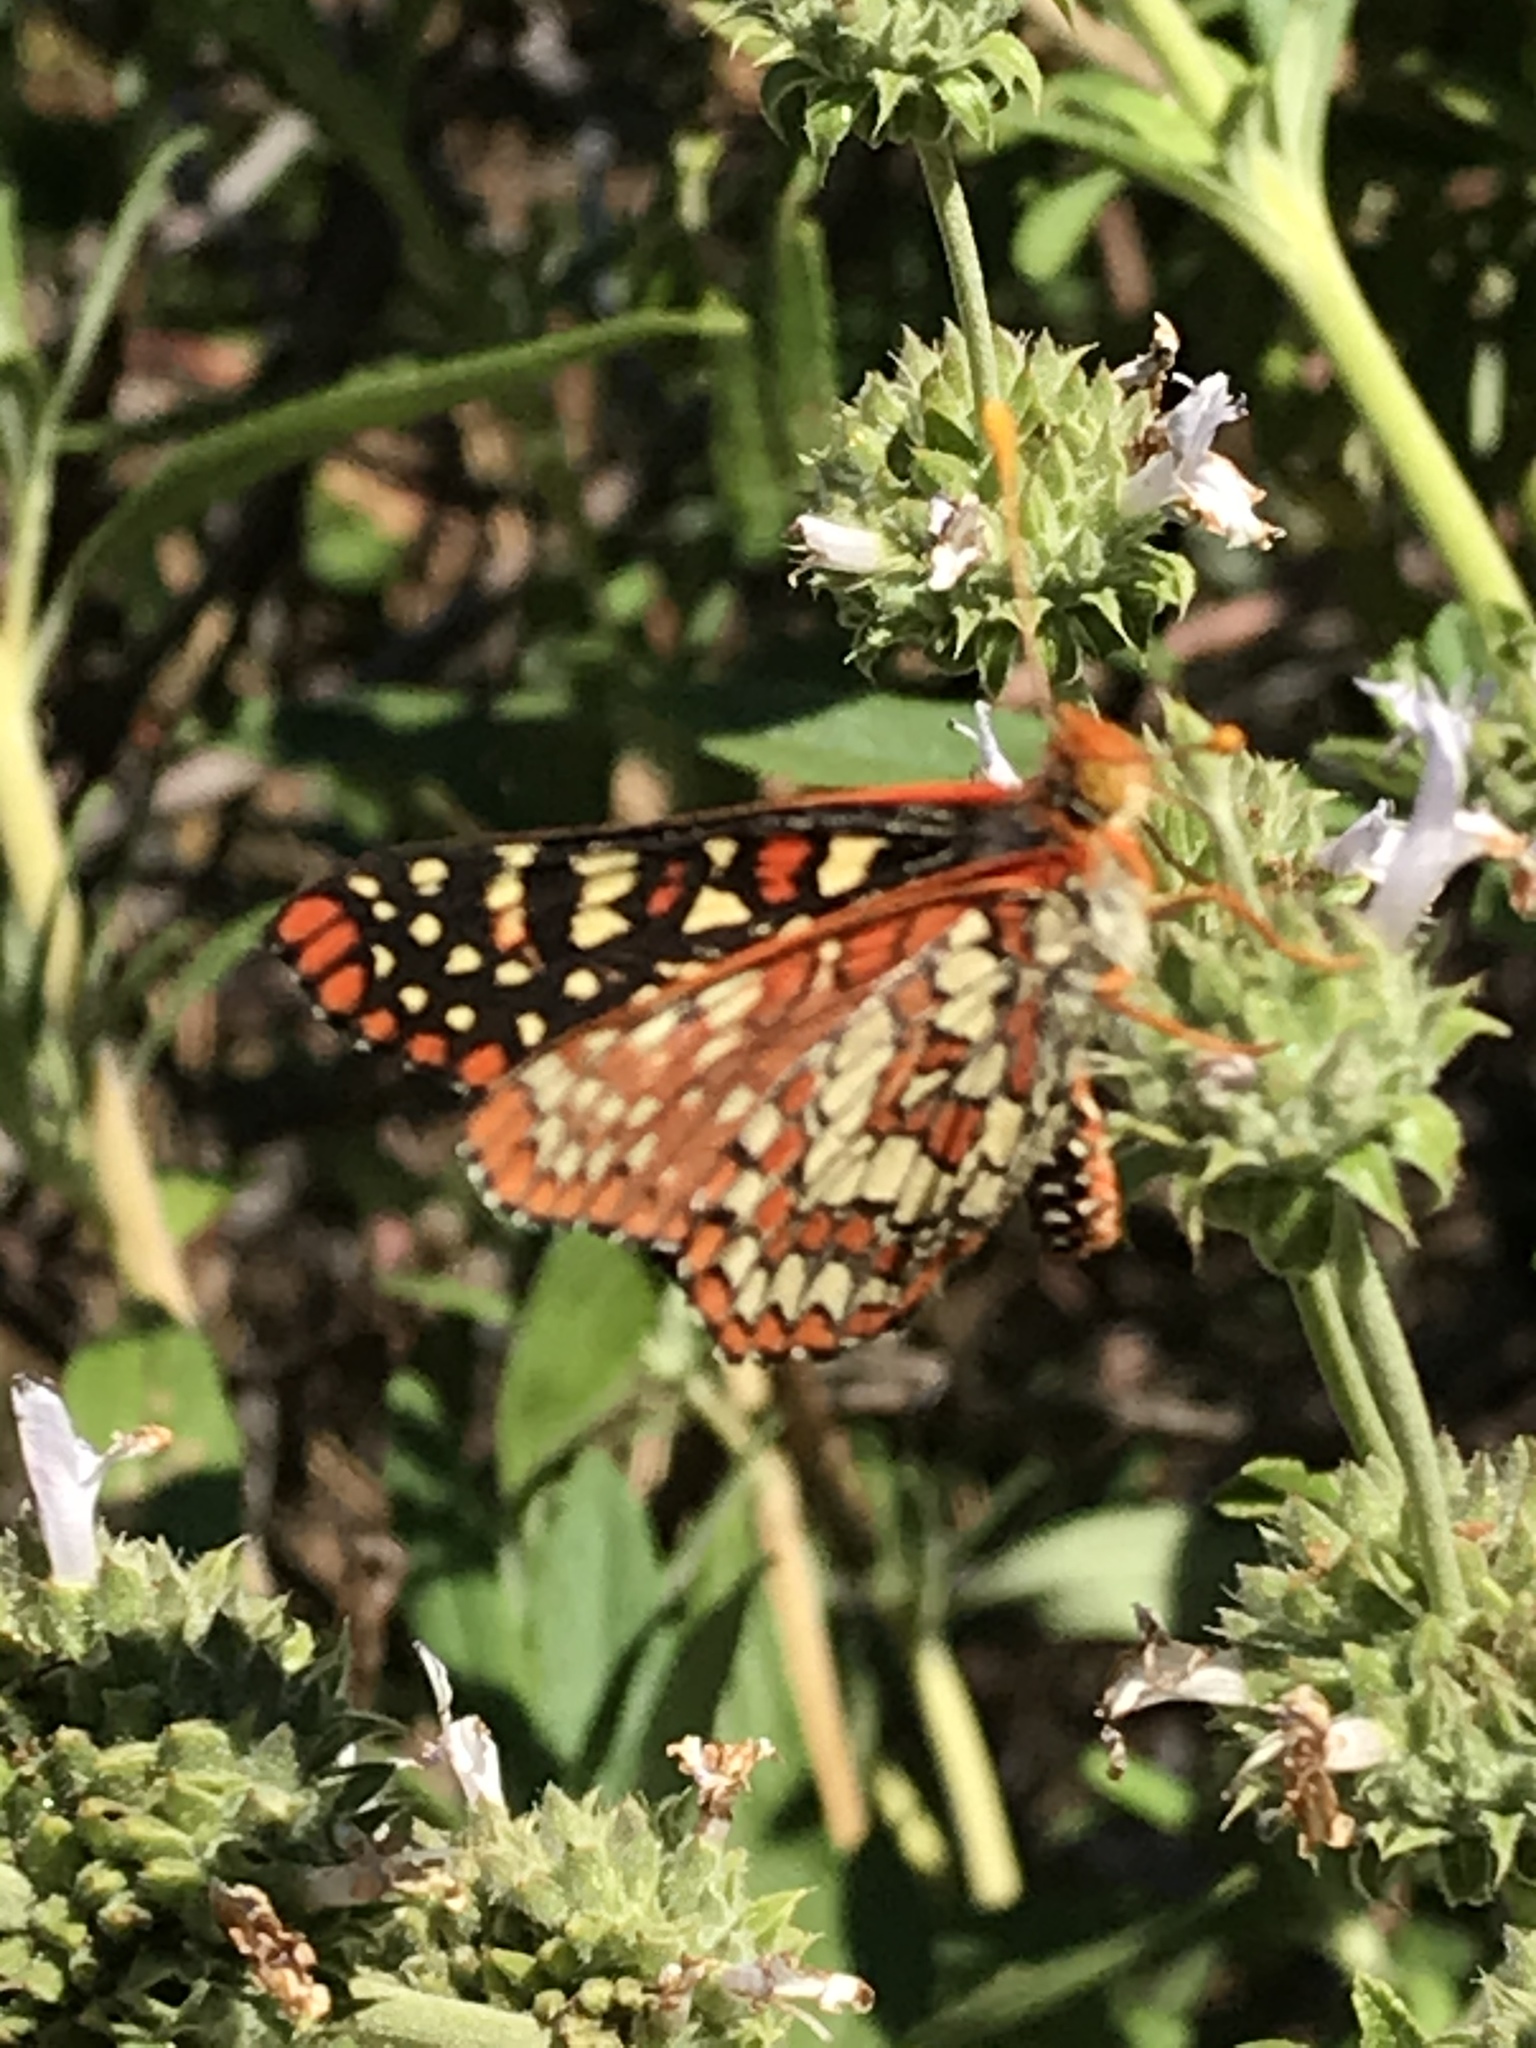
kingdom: Animalia
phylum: Arthropoda
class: Insecta
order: Lepidoptera
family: Nymphalidae
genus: Occidryas
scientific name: Occidryas chalcedona
